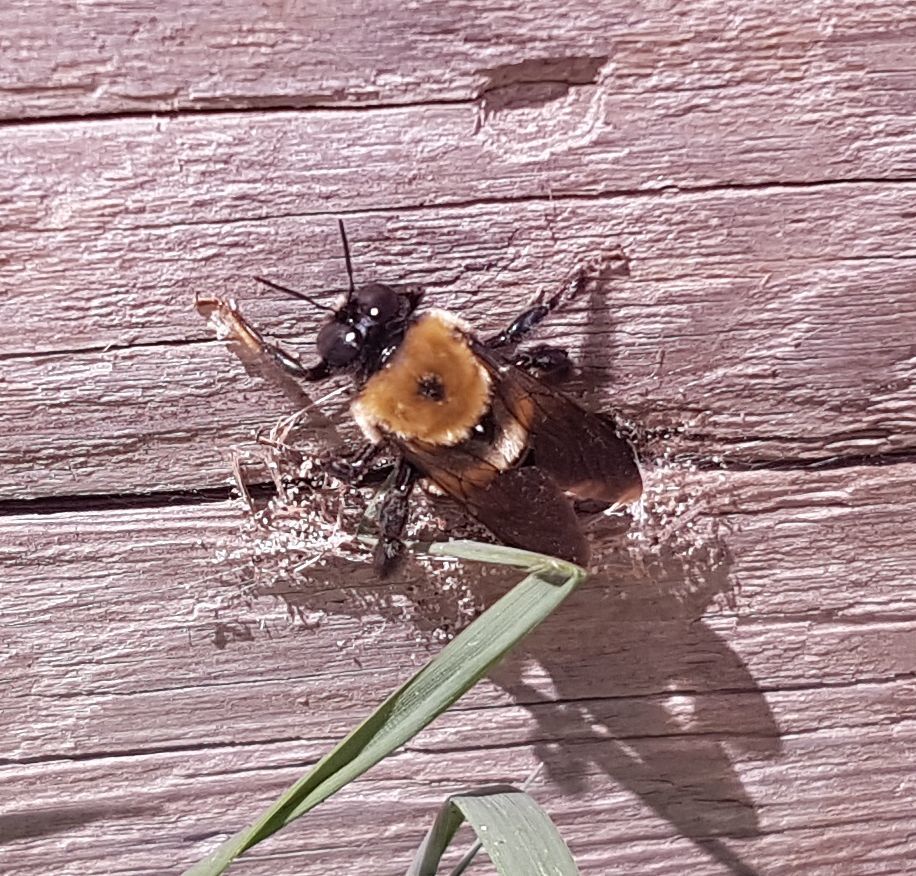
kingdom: Animalia
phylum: Arthropoda
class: Insecta
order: Hymenoptera
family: Apidae
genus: Xylocopa
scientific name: Xylocopa virginica
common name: Carpenter bee
